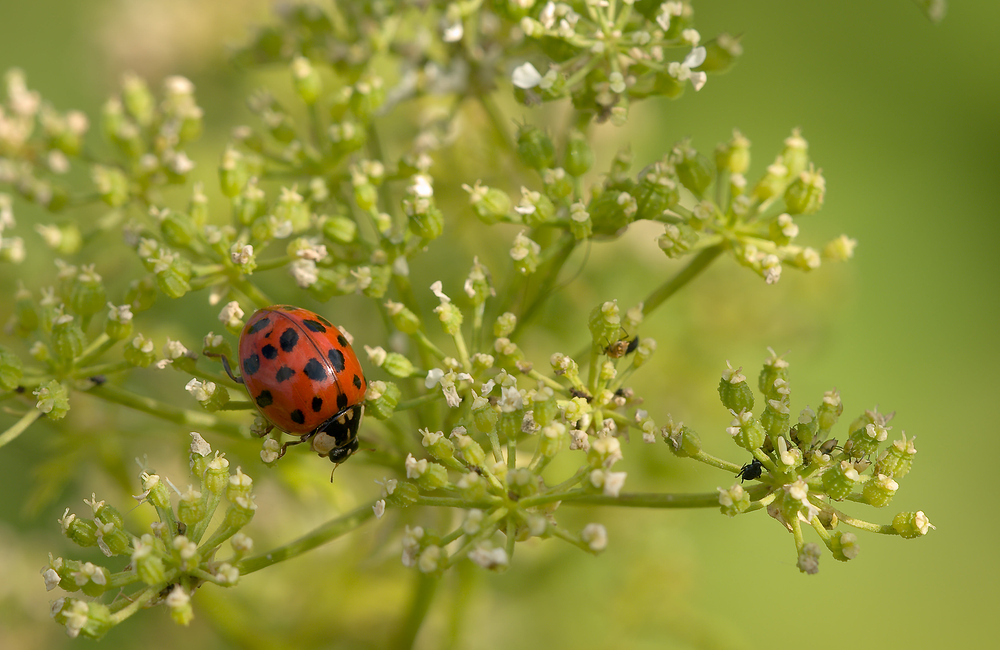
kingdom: Animalia
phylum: Arthropoda
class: Insecta
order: Coleoptera
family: Coccinellidae
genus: Harmonia
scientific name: Harmonia axyridis
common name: Harlequin ladybird
